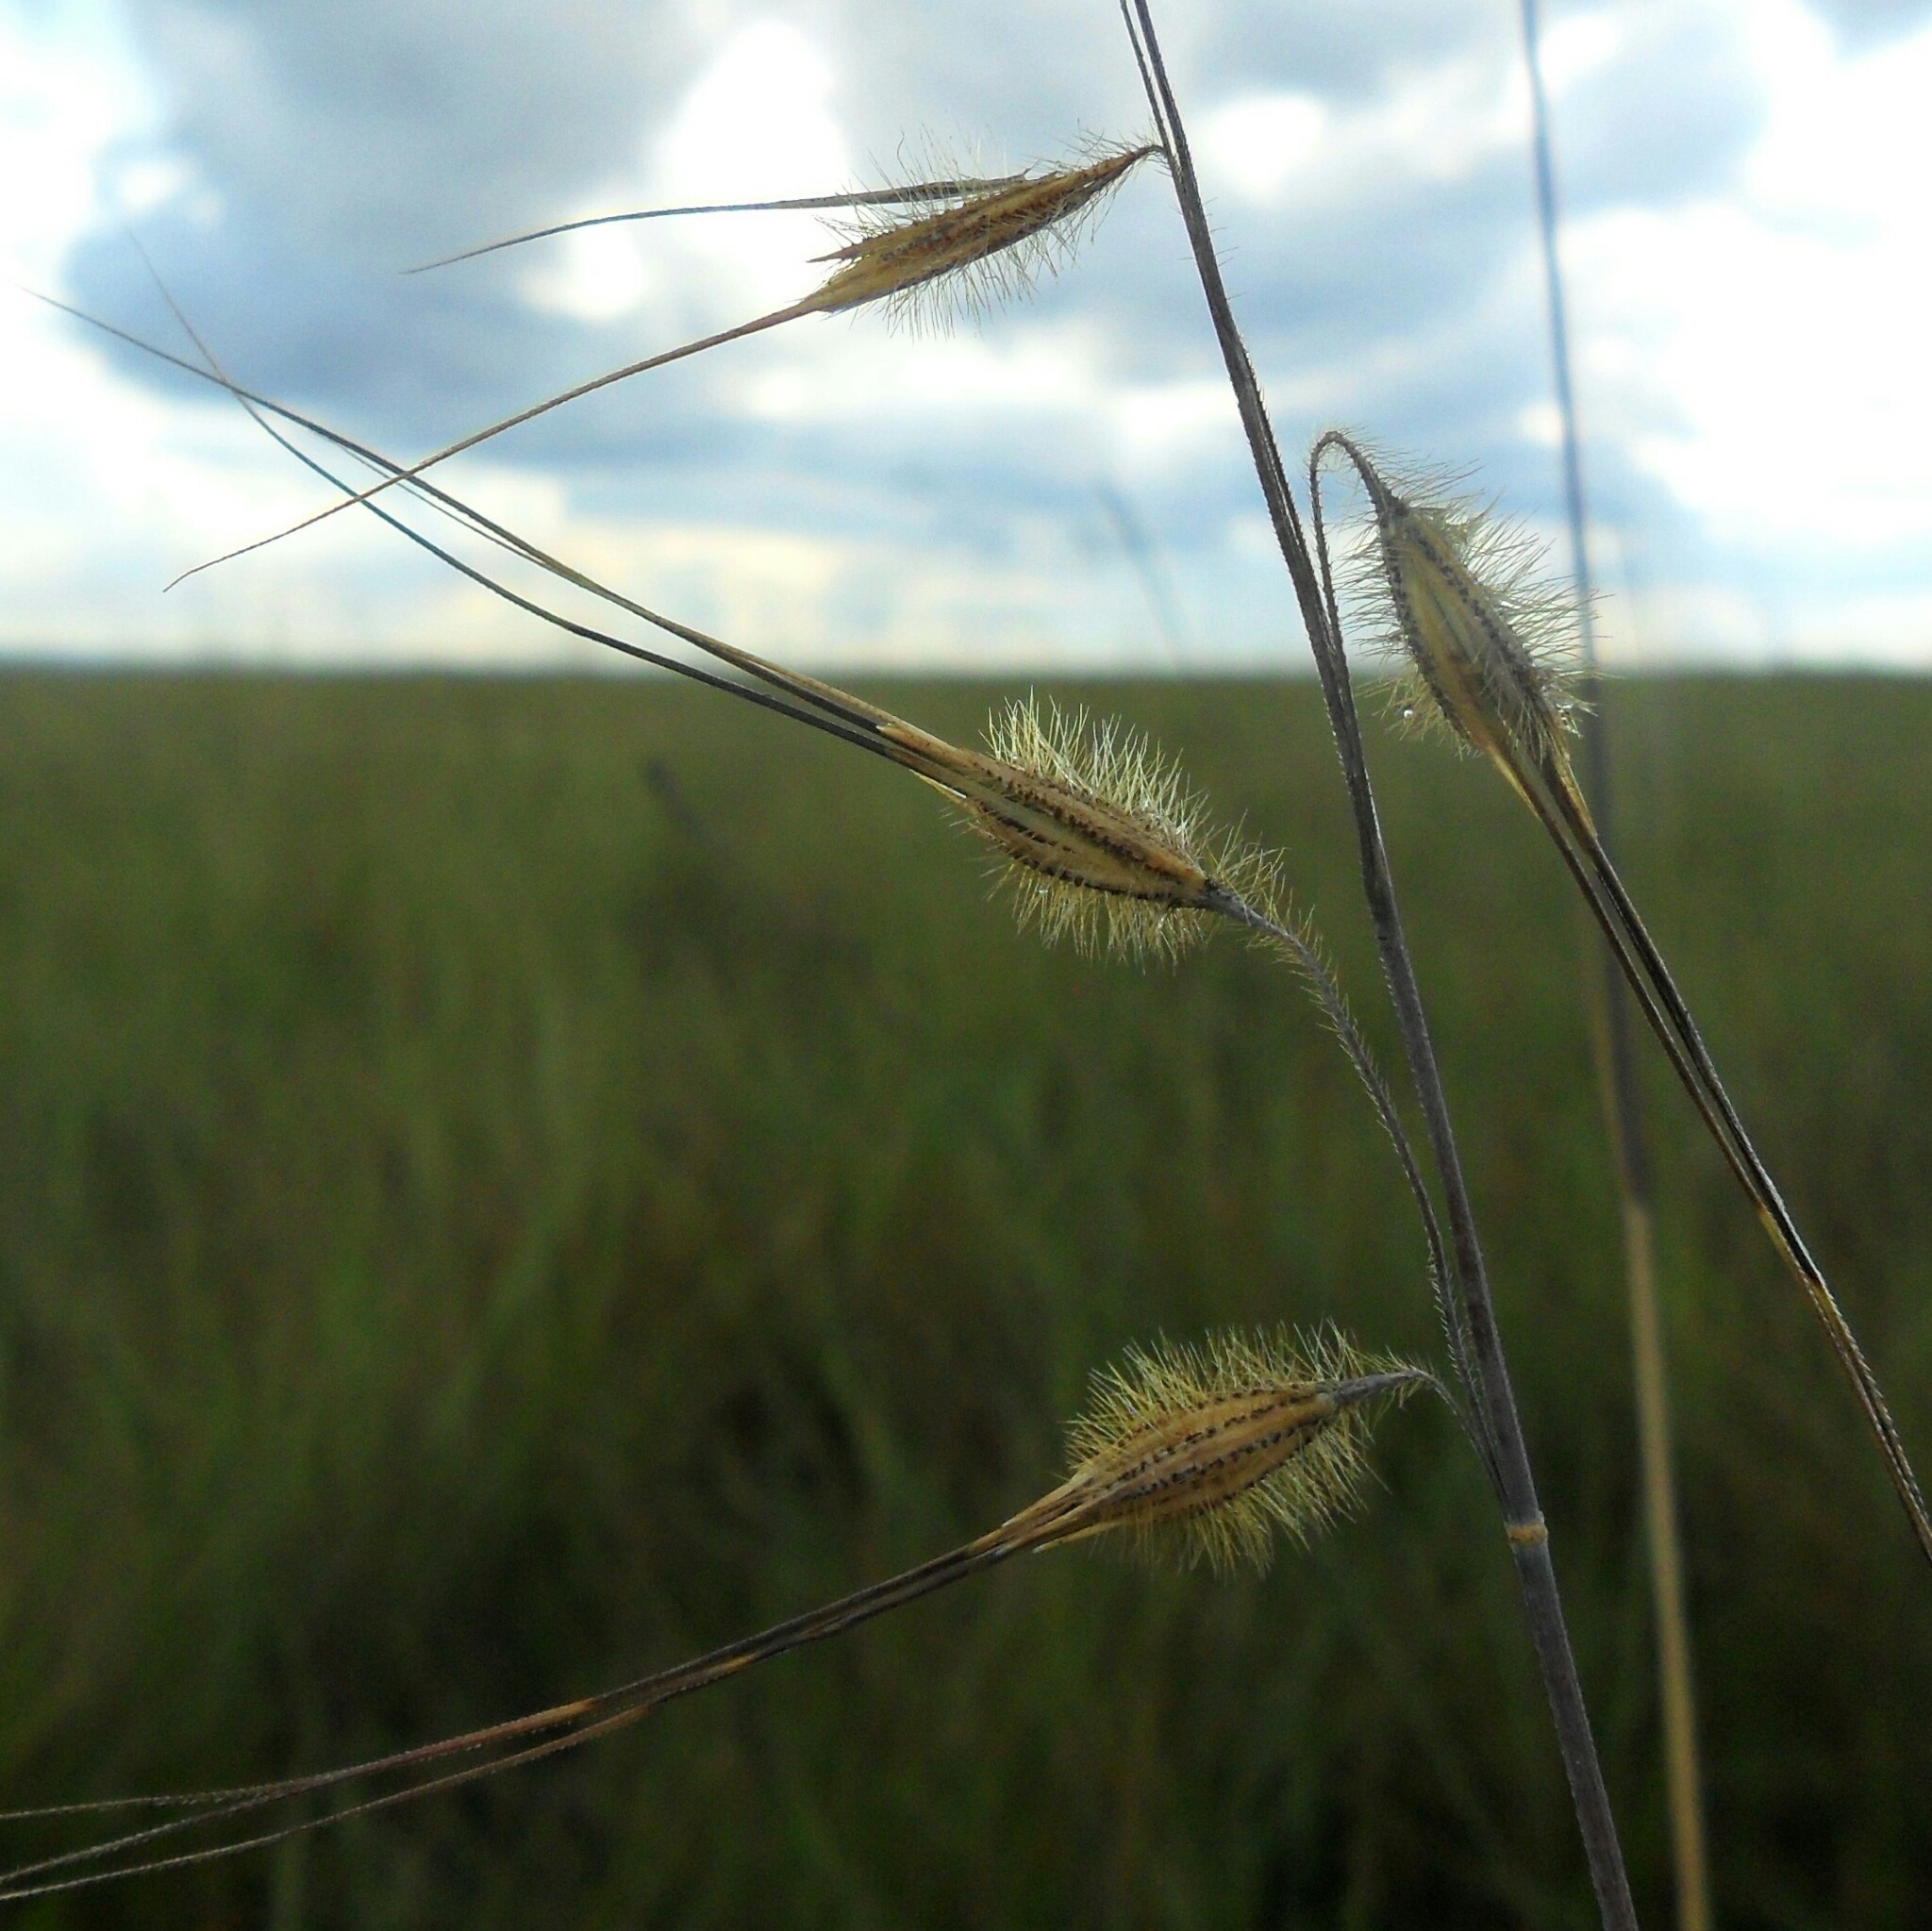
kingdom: Plantae
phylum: Tracheophyta
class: Liliopsida
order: Poales
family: Poaceae
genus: Loudetiopsis
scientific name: Loudetiopsis chrysothrix
